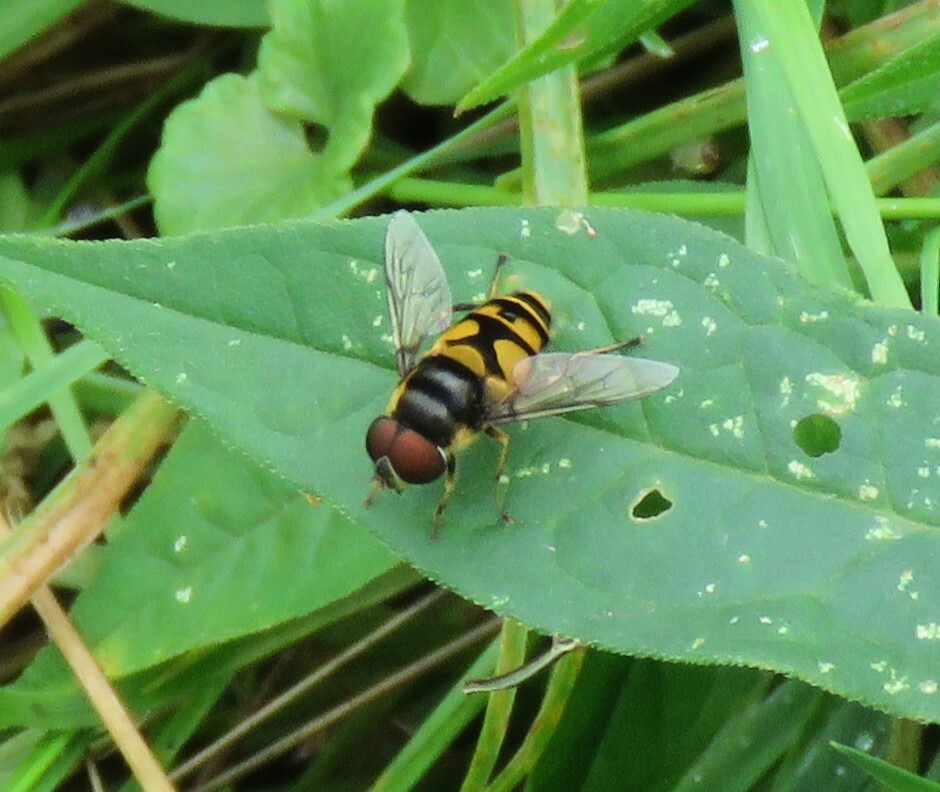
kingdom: Animalia
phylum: Arthropoda
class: Insecta
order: Diptera
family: Syrphidae
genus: Eristalis
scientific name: Eristalis transversa
